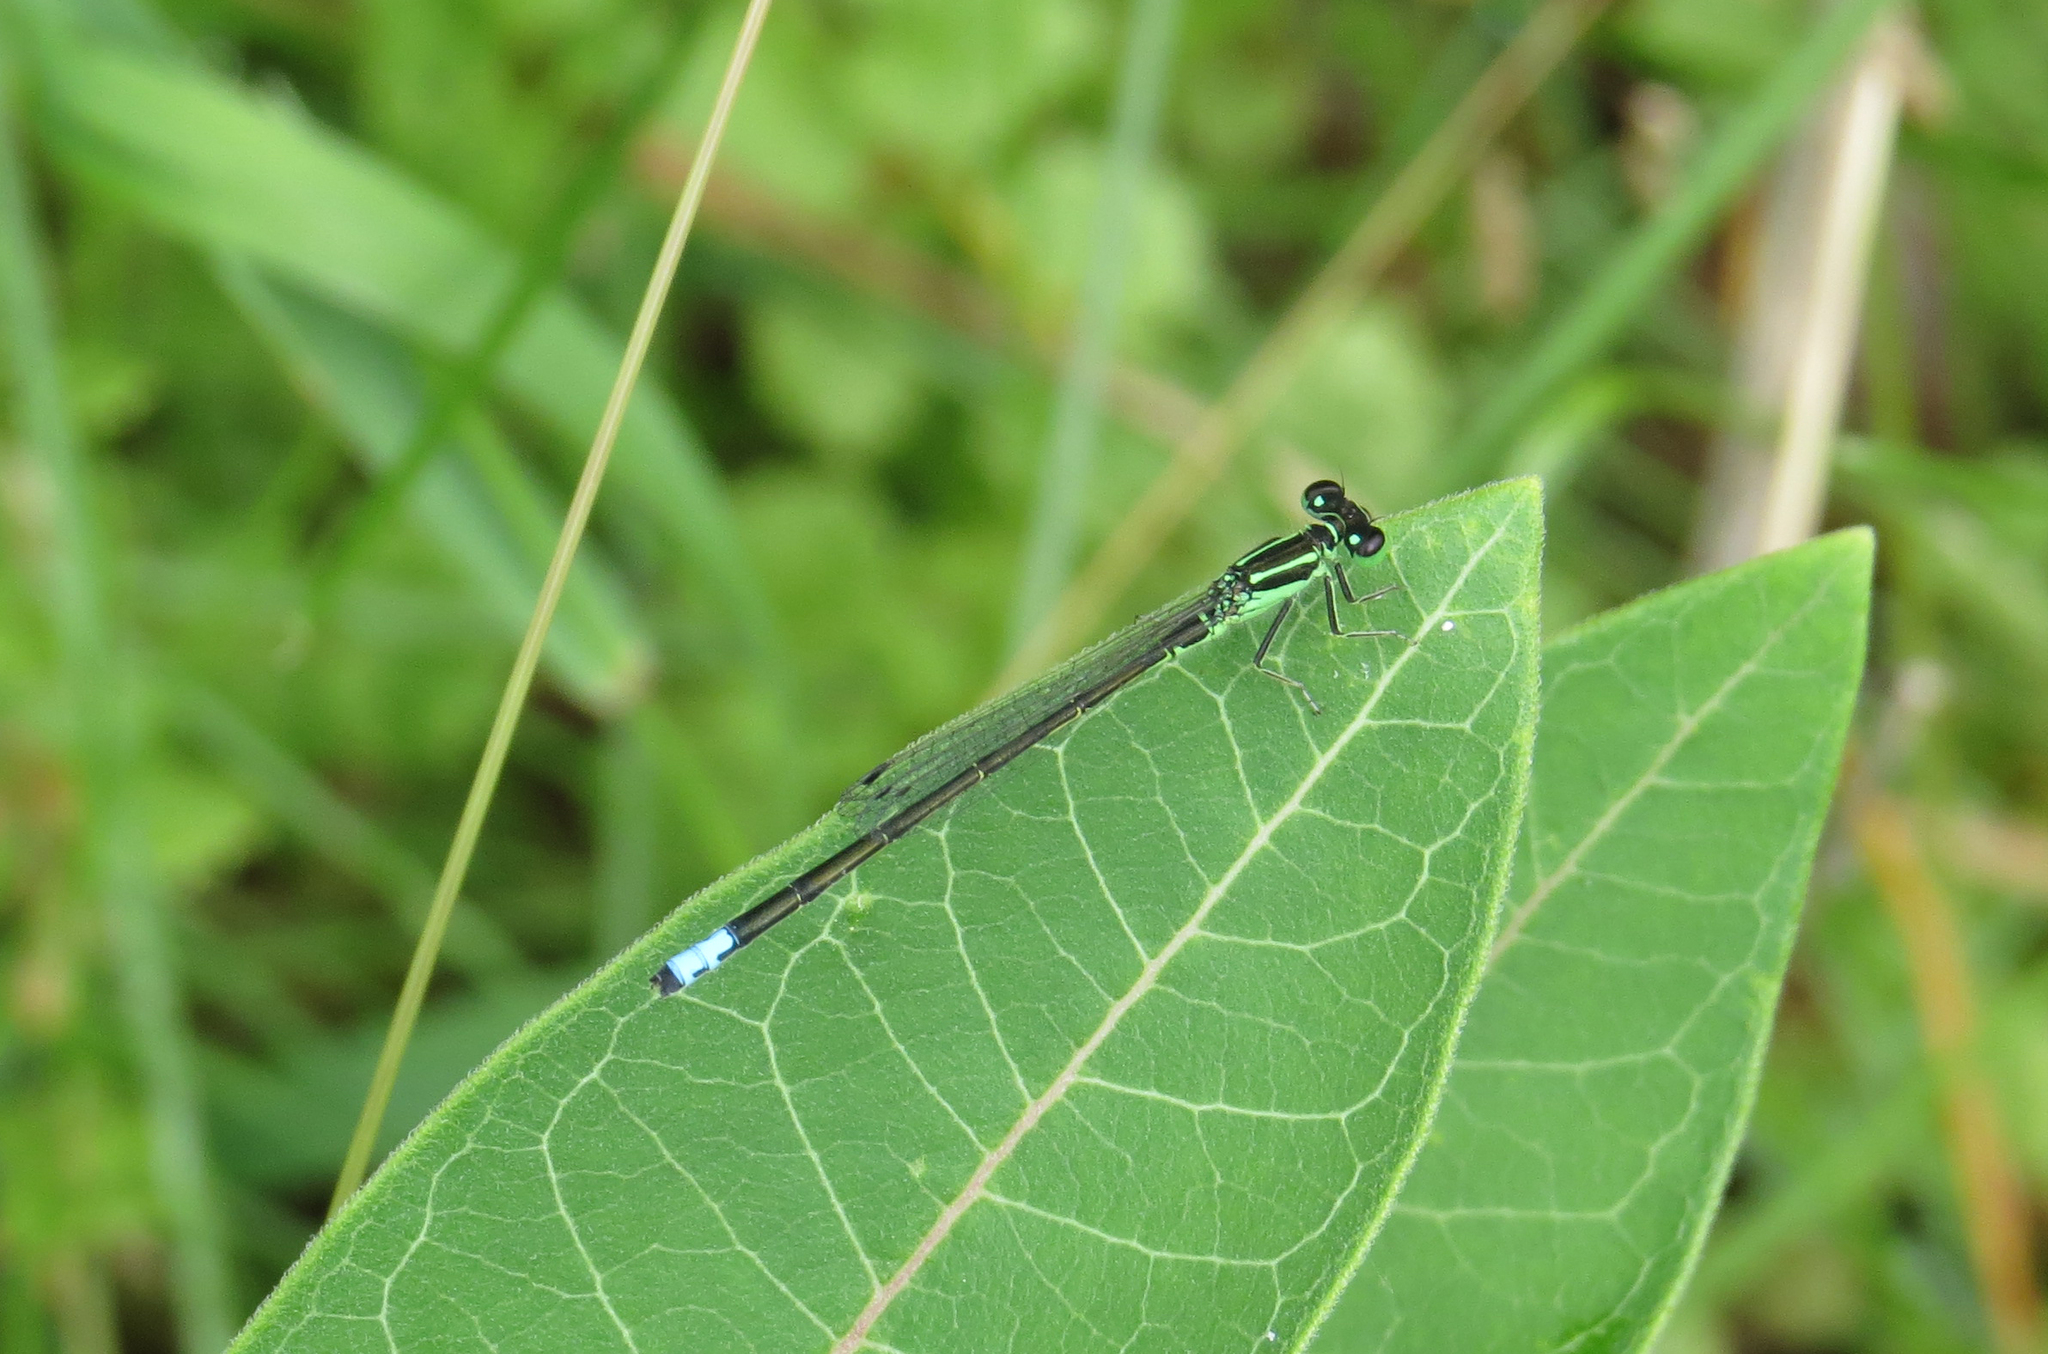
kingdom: Animalia
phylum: Arthropoda
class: Insecta
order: Odonata
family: Coenagrionidae
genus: Ischnura
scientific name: Ischnura verticalis
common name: Eastern forktail
